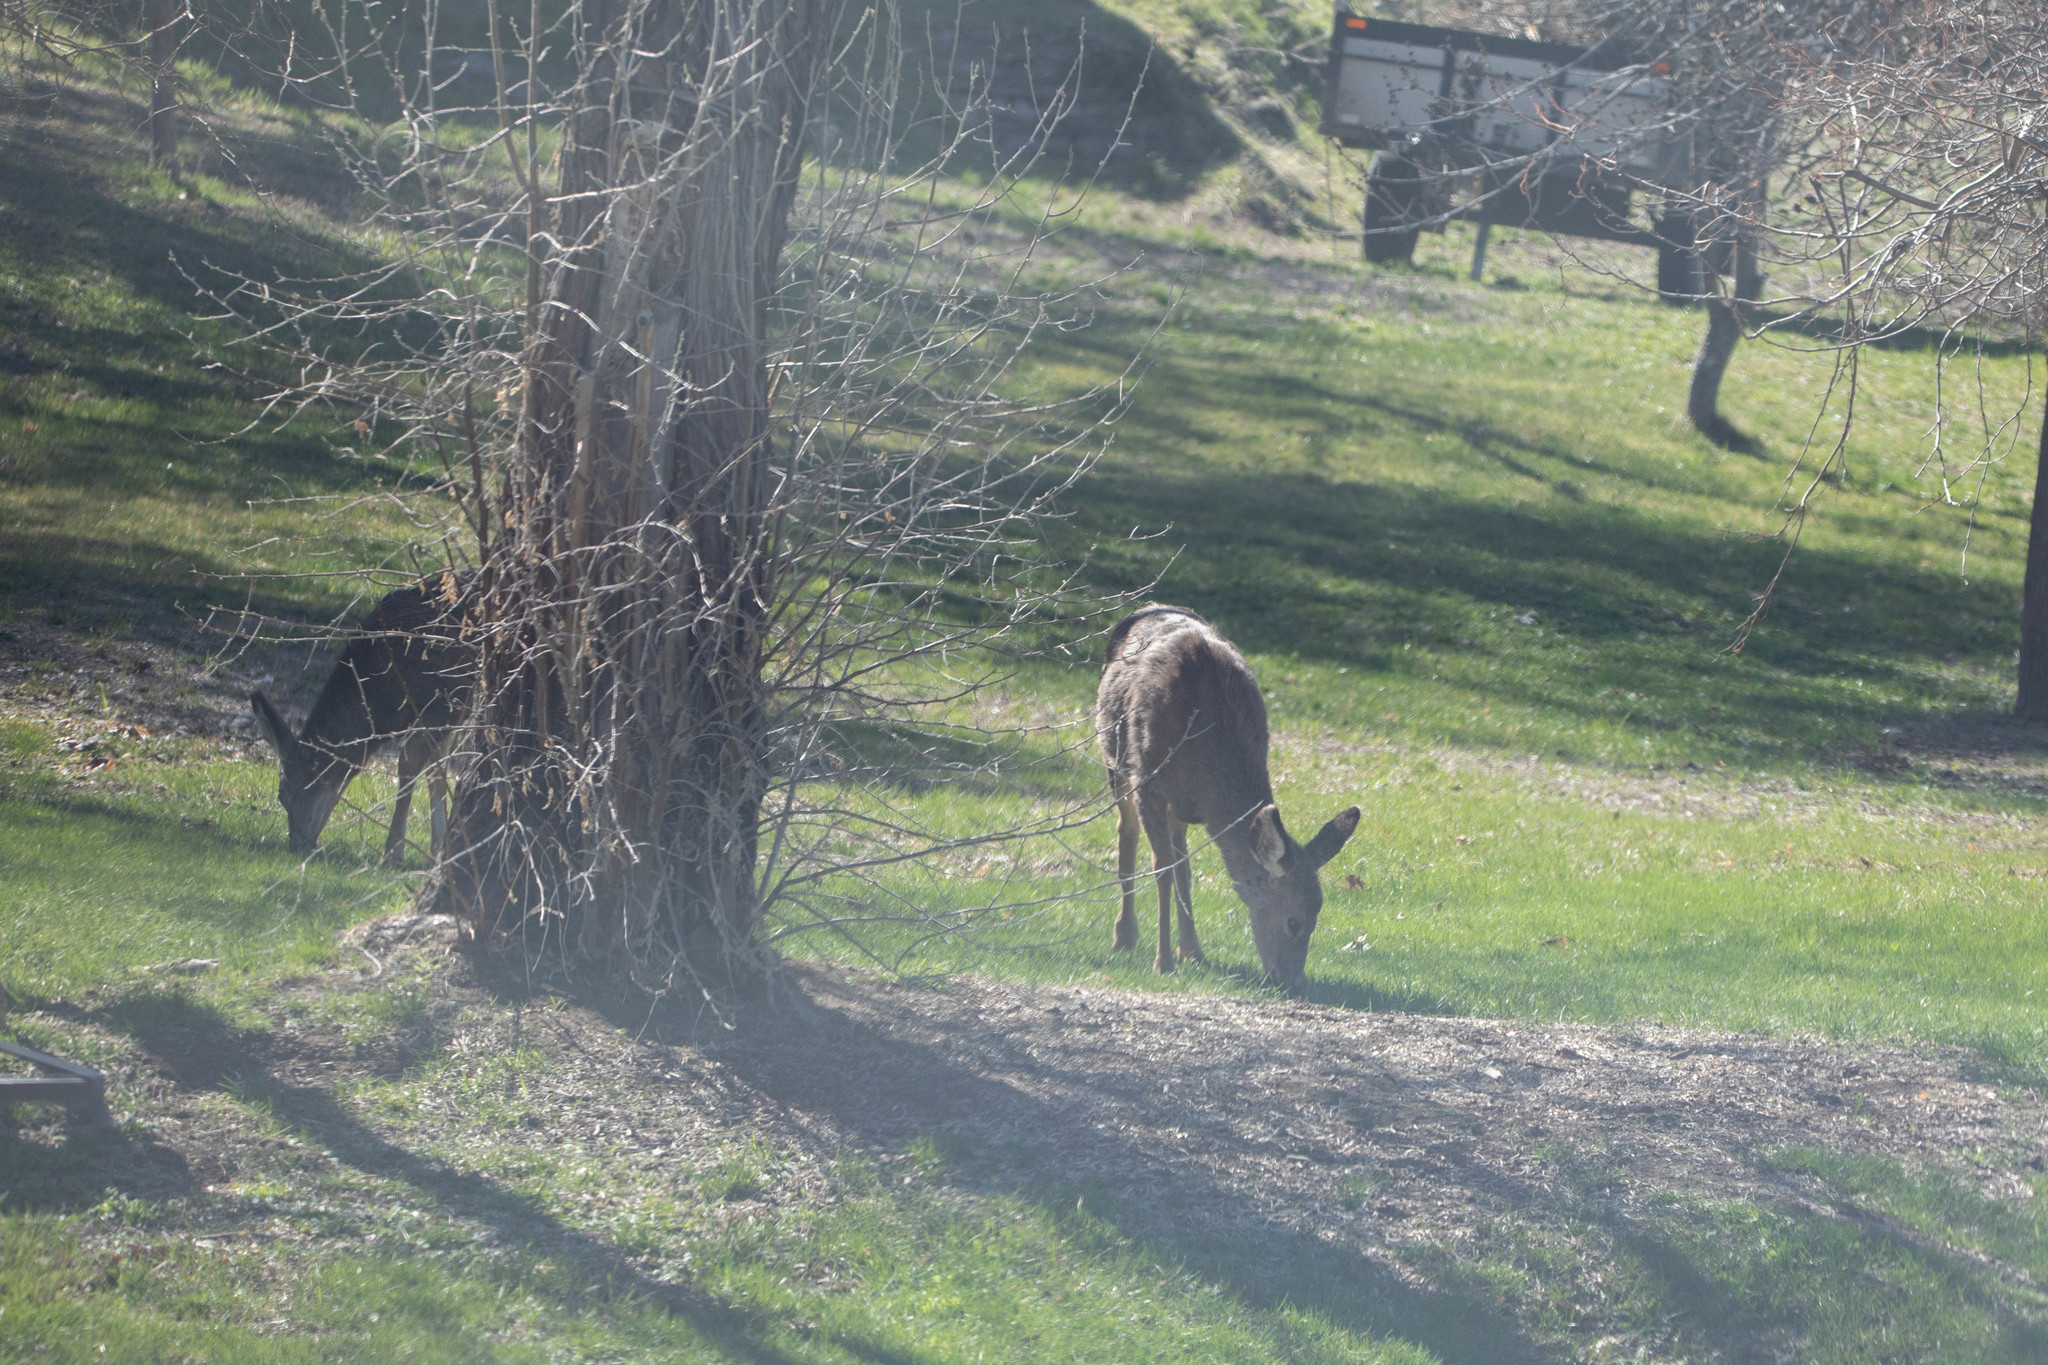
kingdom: Animalia
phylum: Chordata
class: Mammalia
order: Artiodactyla
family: Cervidae
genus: Odocoileus
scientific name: Odocoileus hemionus
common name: Mule deer
